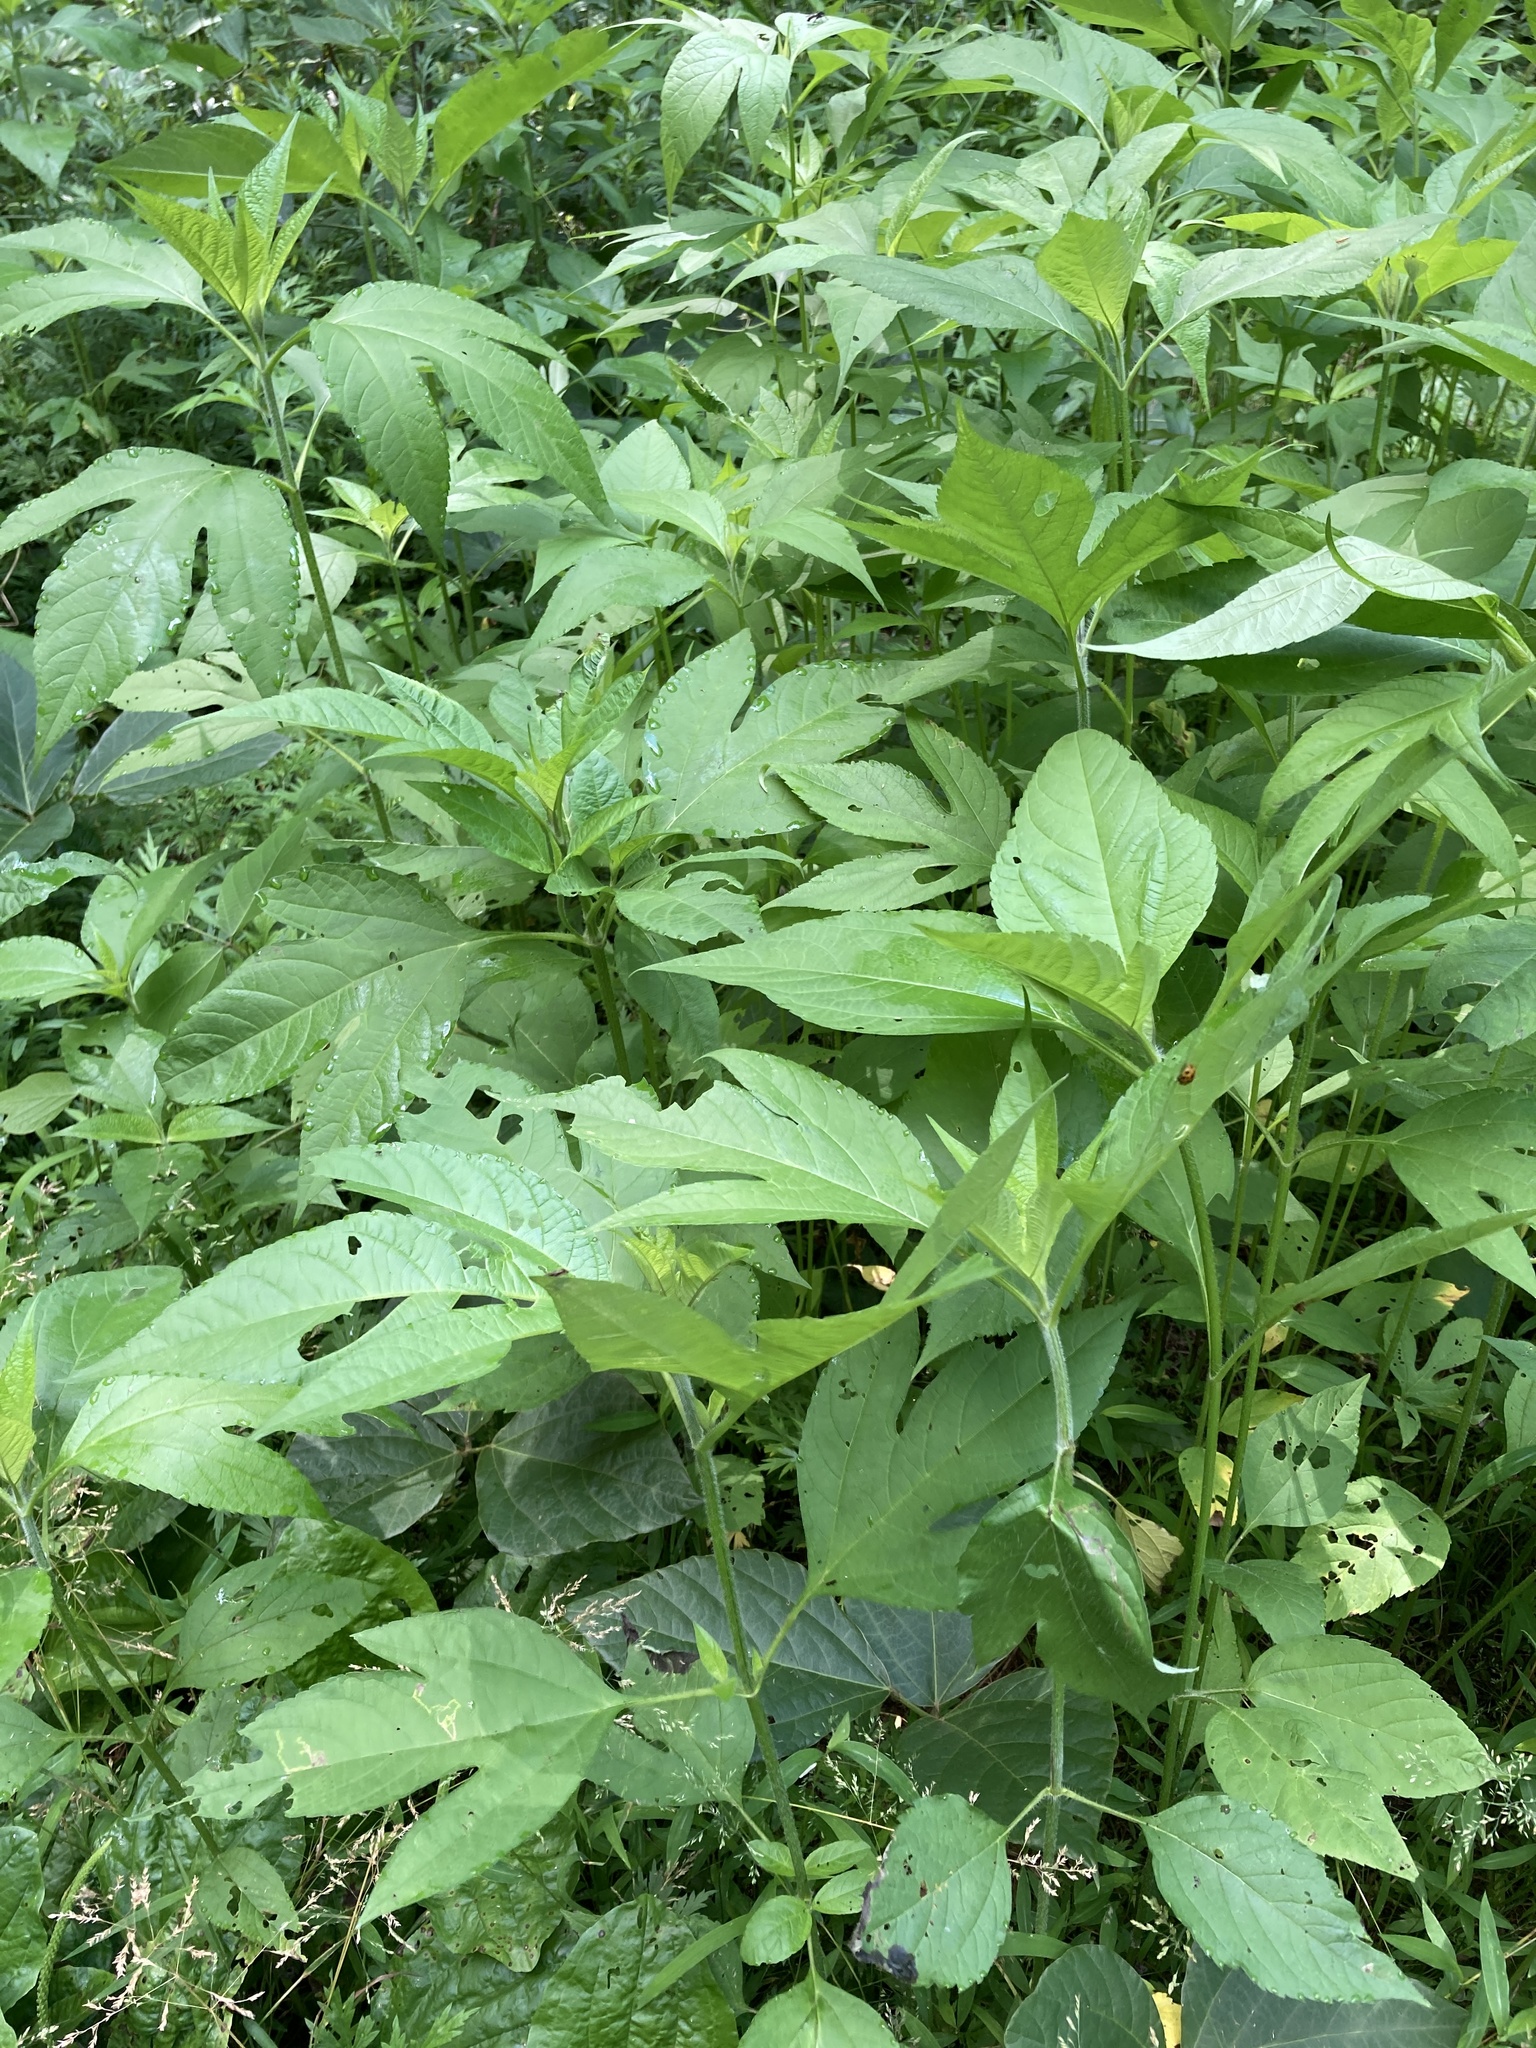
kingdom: Plantae
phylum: Tracheophyta
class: Magnoliopsida
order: Asterales
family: Asteraceae
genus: Ambrosia
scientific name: Ambrosia trifida
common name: Giant ragweed
